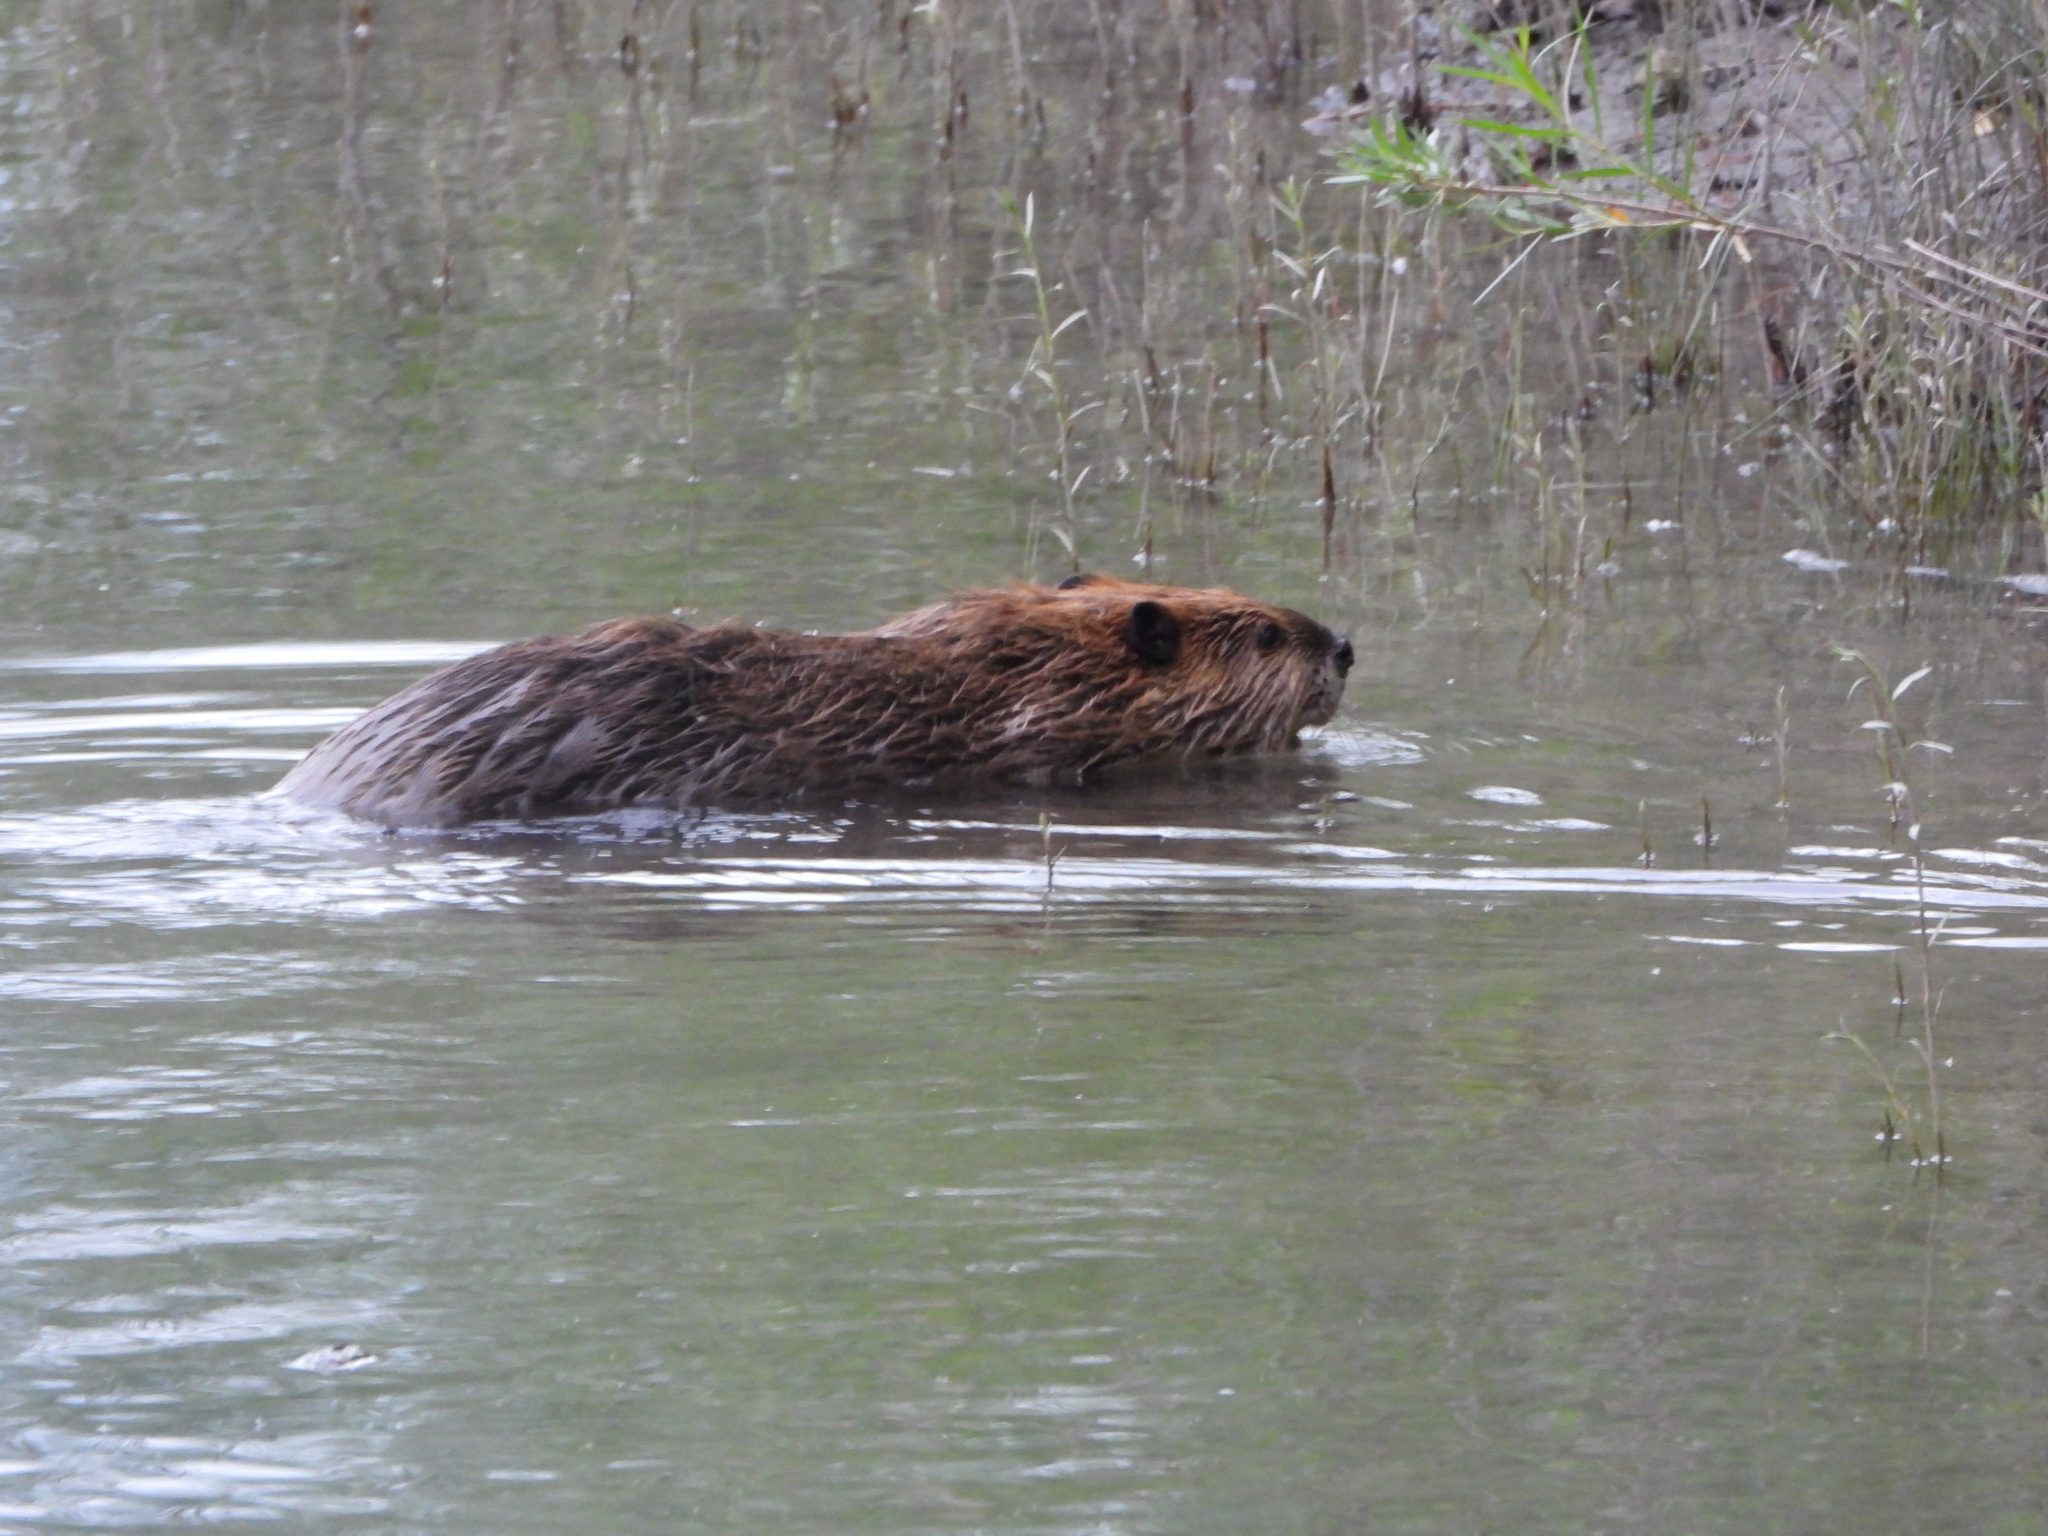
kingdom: Animalia
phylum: Chordata
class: Mammalia
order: Rodentia
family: Castoridae
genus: Castor
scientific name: Castor canadensis
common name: American beaver
